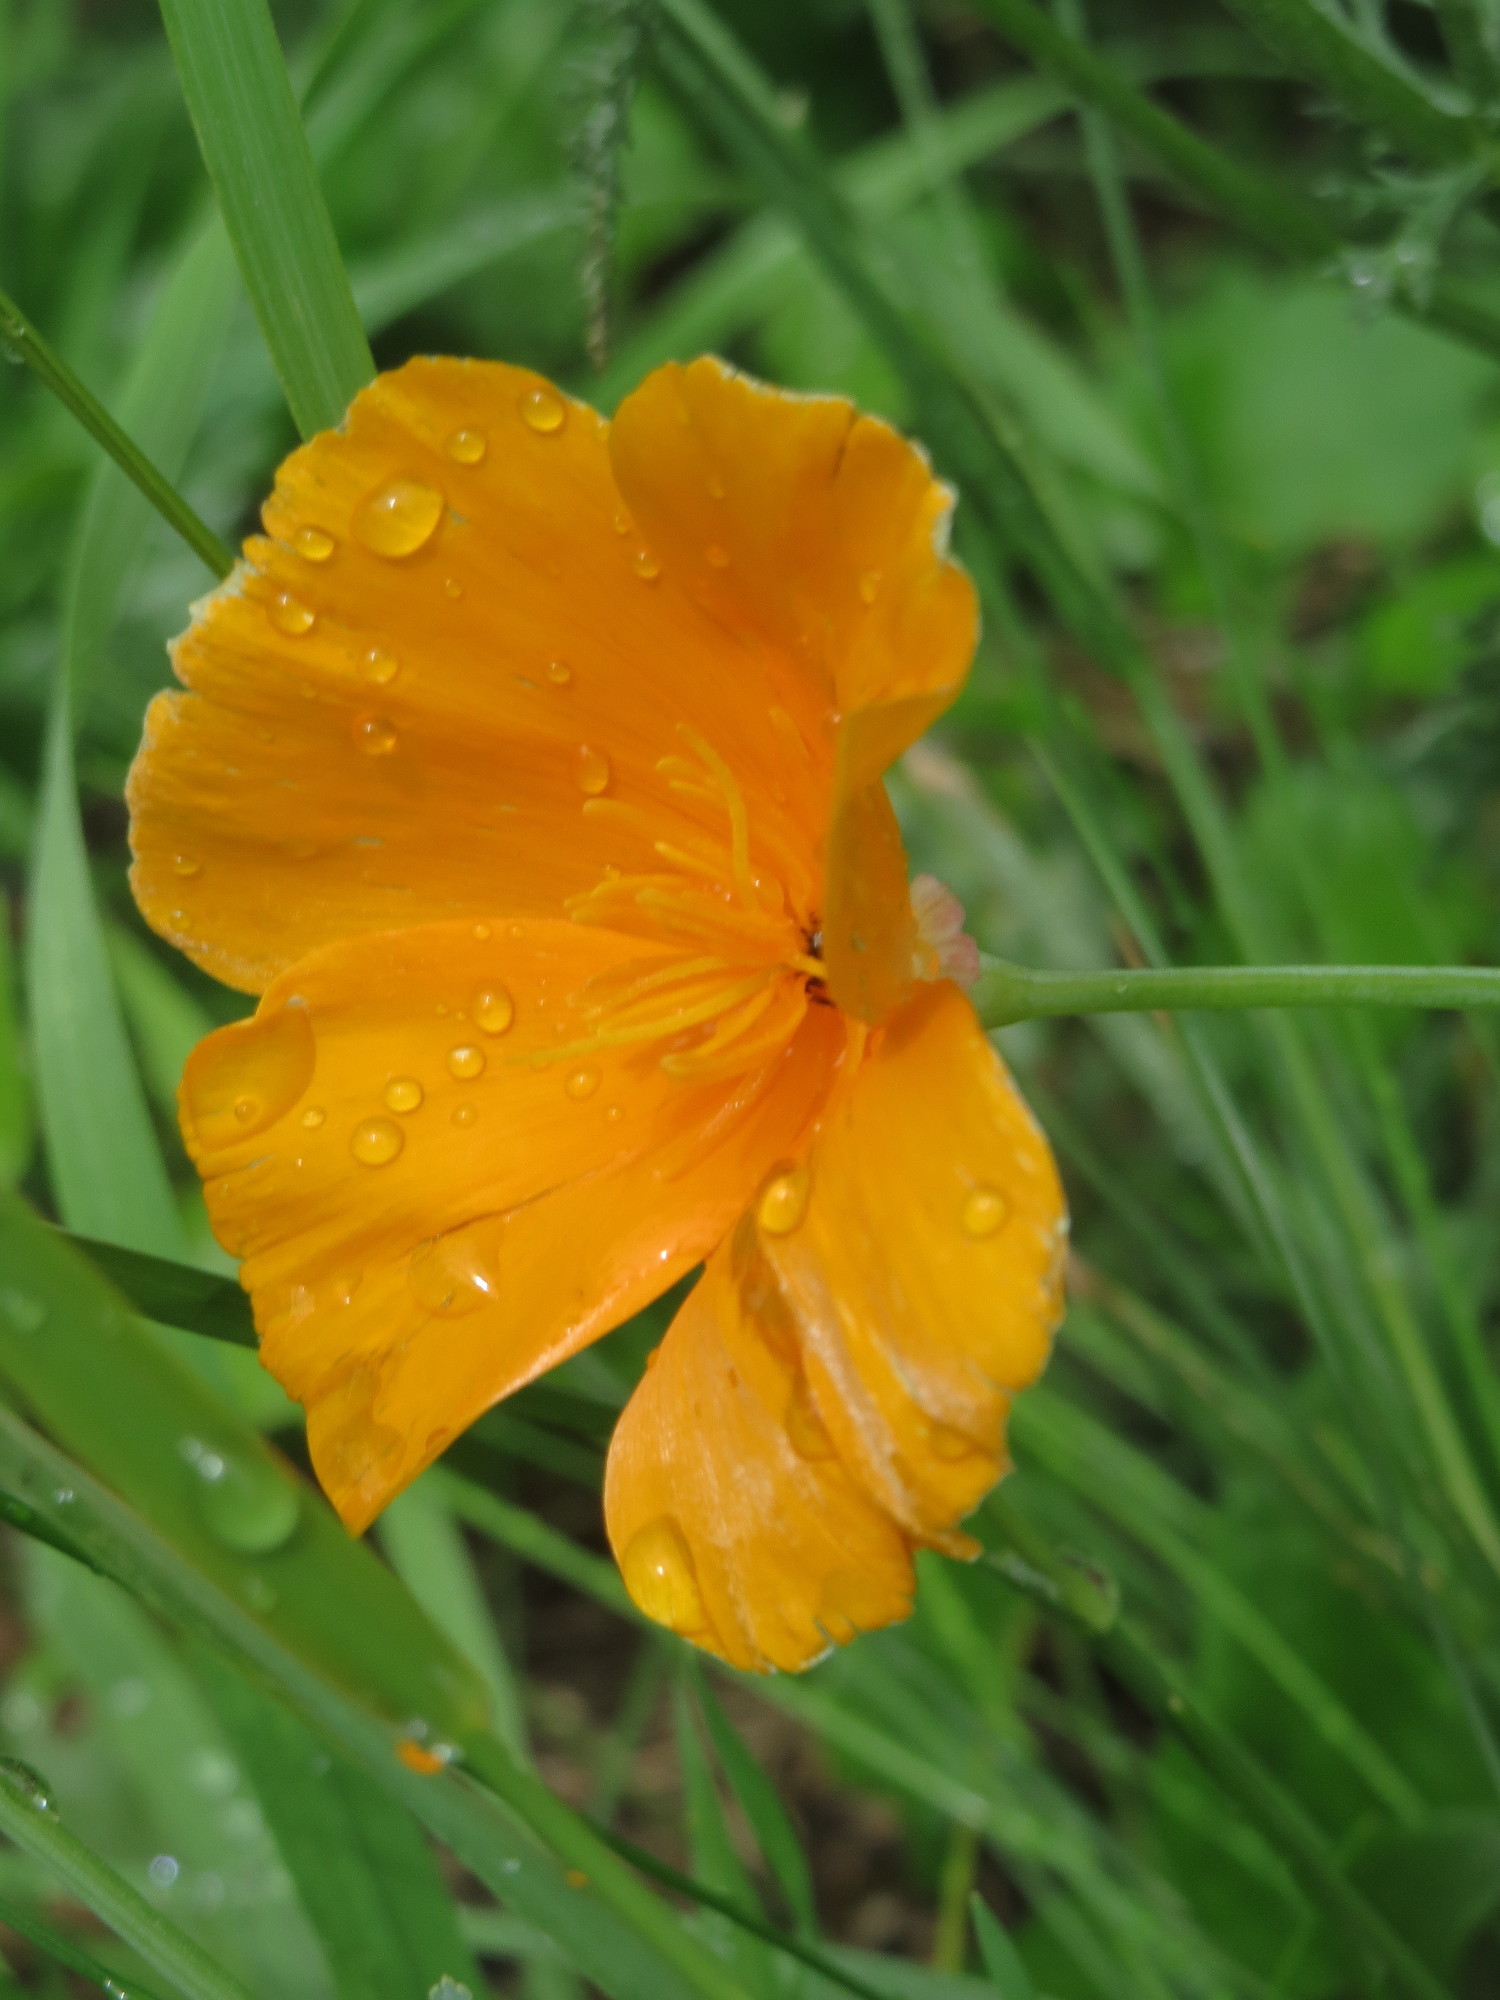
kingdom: Plantae
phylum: Tracheophyta
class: Magnoliopsida
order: Ranunculales
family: Papaveraceae
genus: Eschscholzia
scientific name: Eschscholzia californica
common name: California poppy
